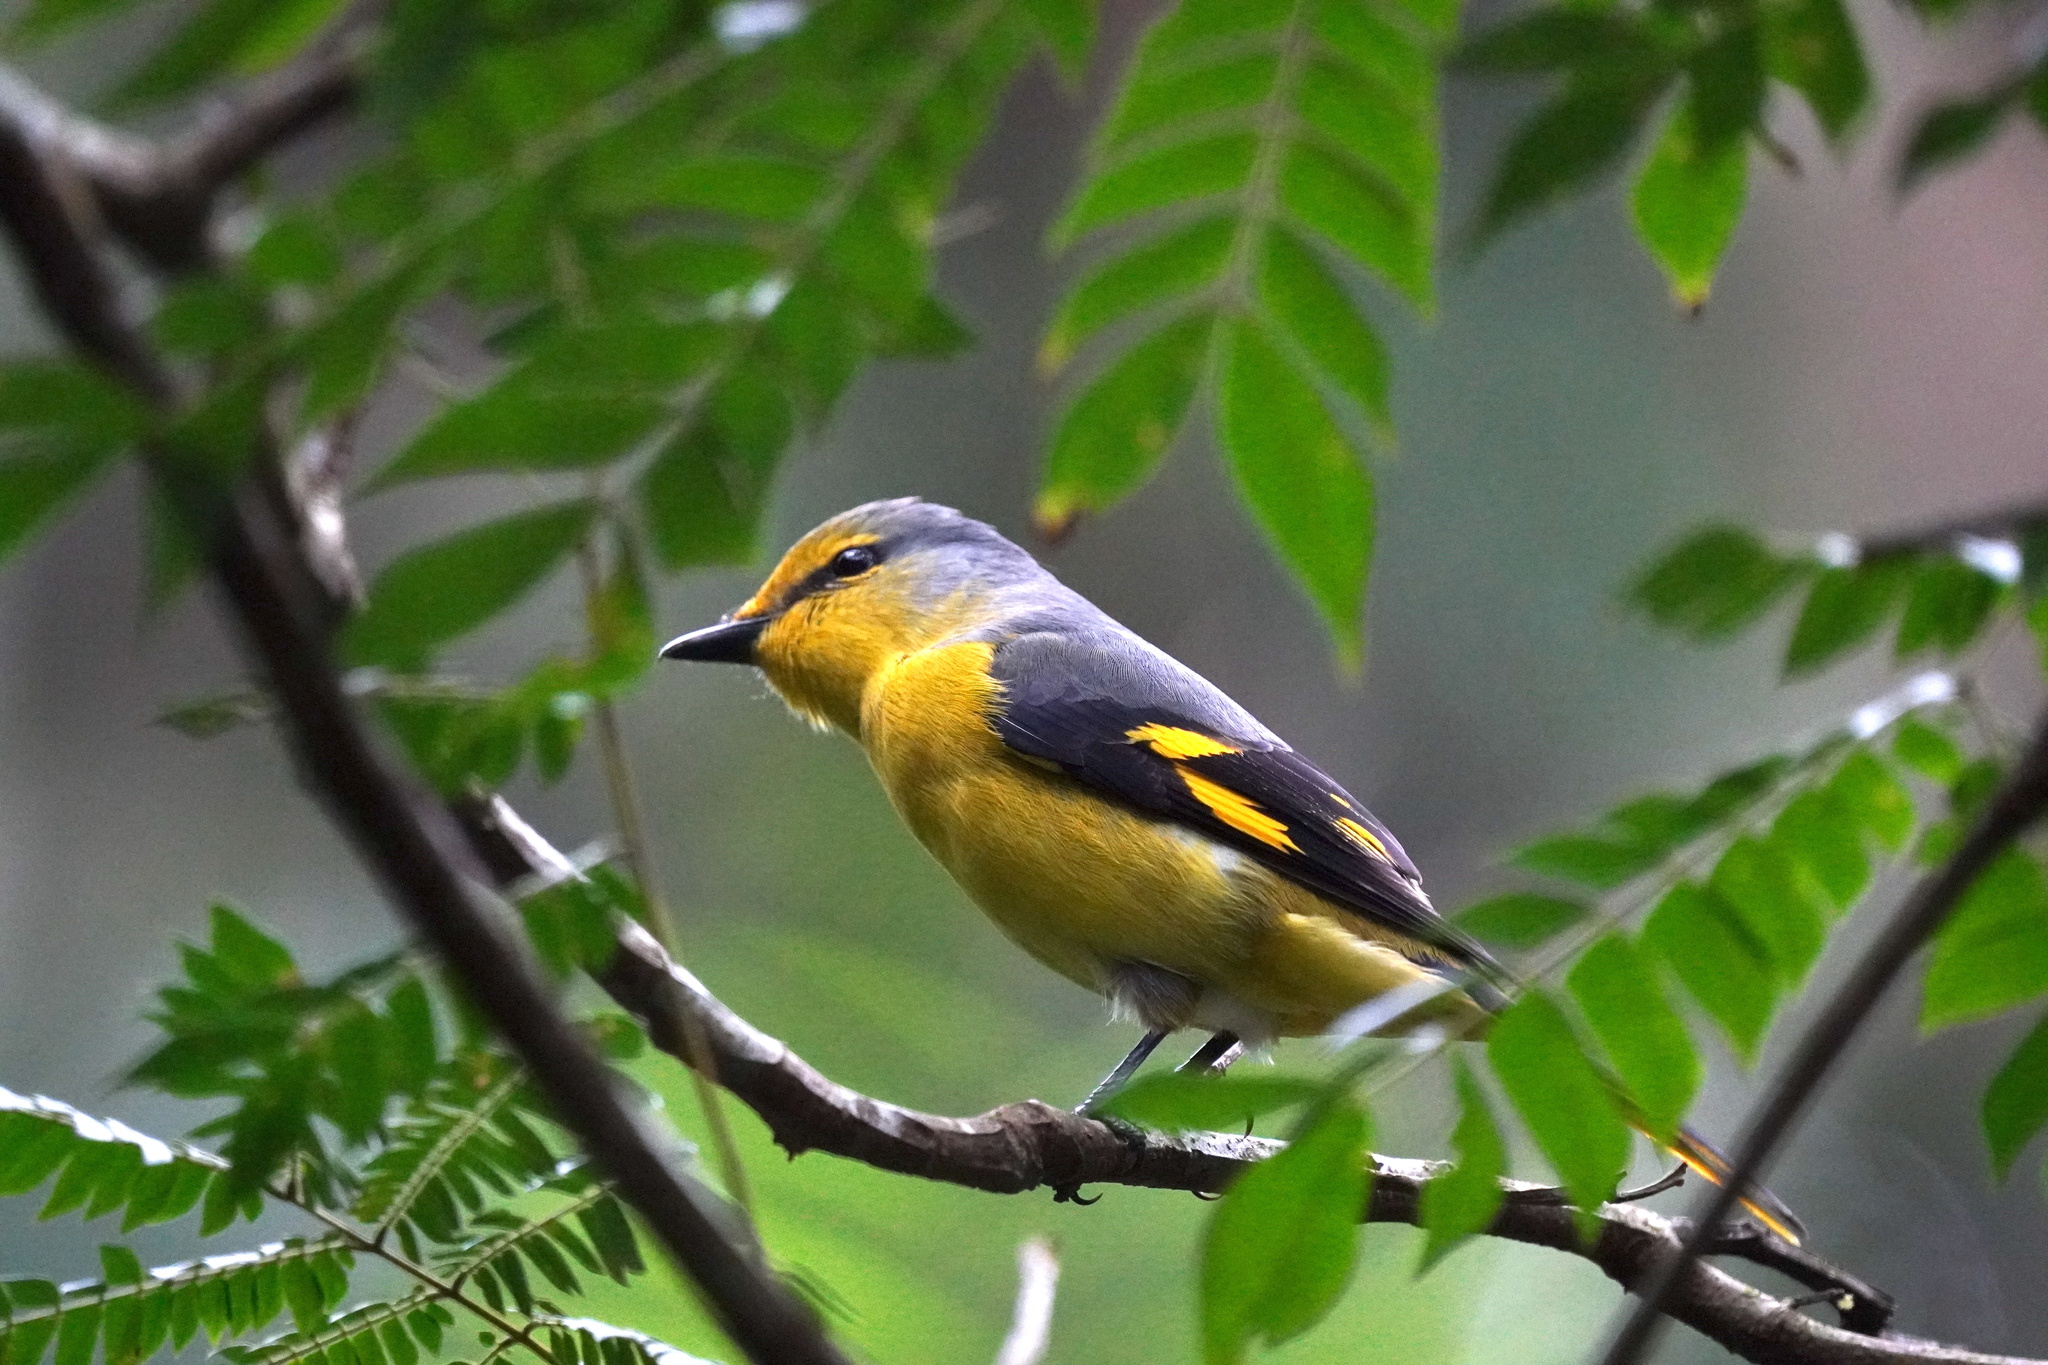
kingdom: Animalia
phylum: Chordata
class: Aves
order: Passeriformes
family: Campephagidae
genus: Pericrocotus
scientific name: Pericrocotus speciosus
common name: Scarlet minivet
